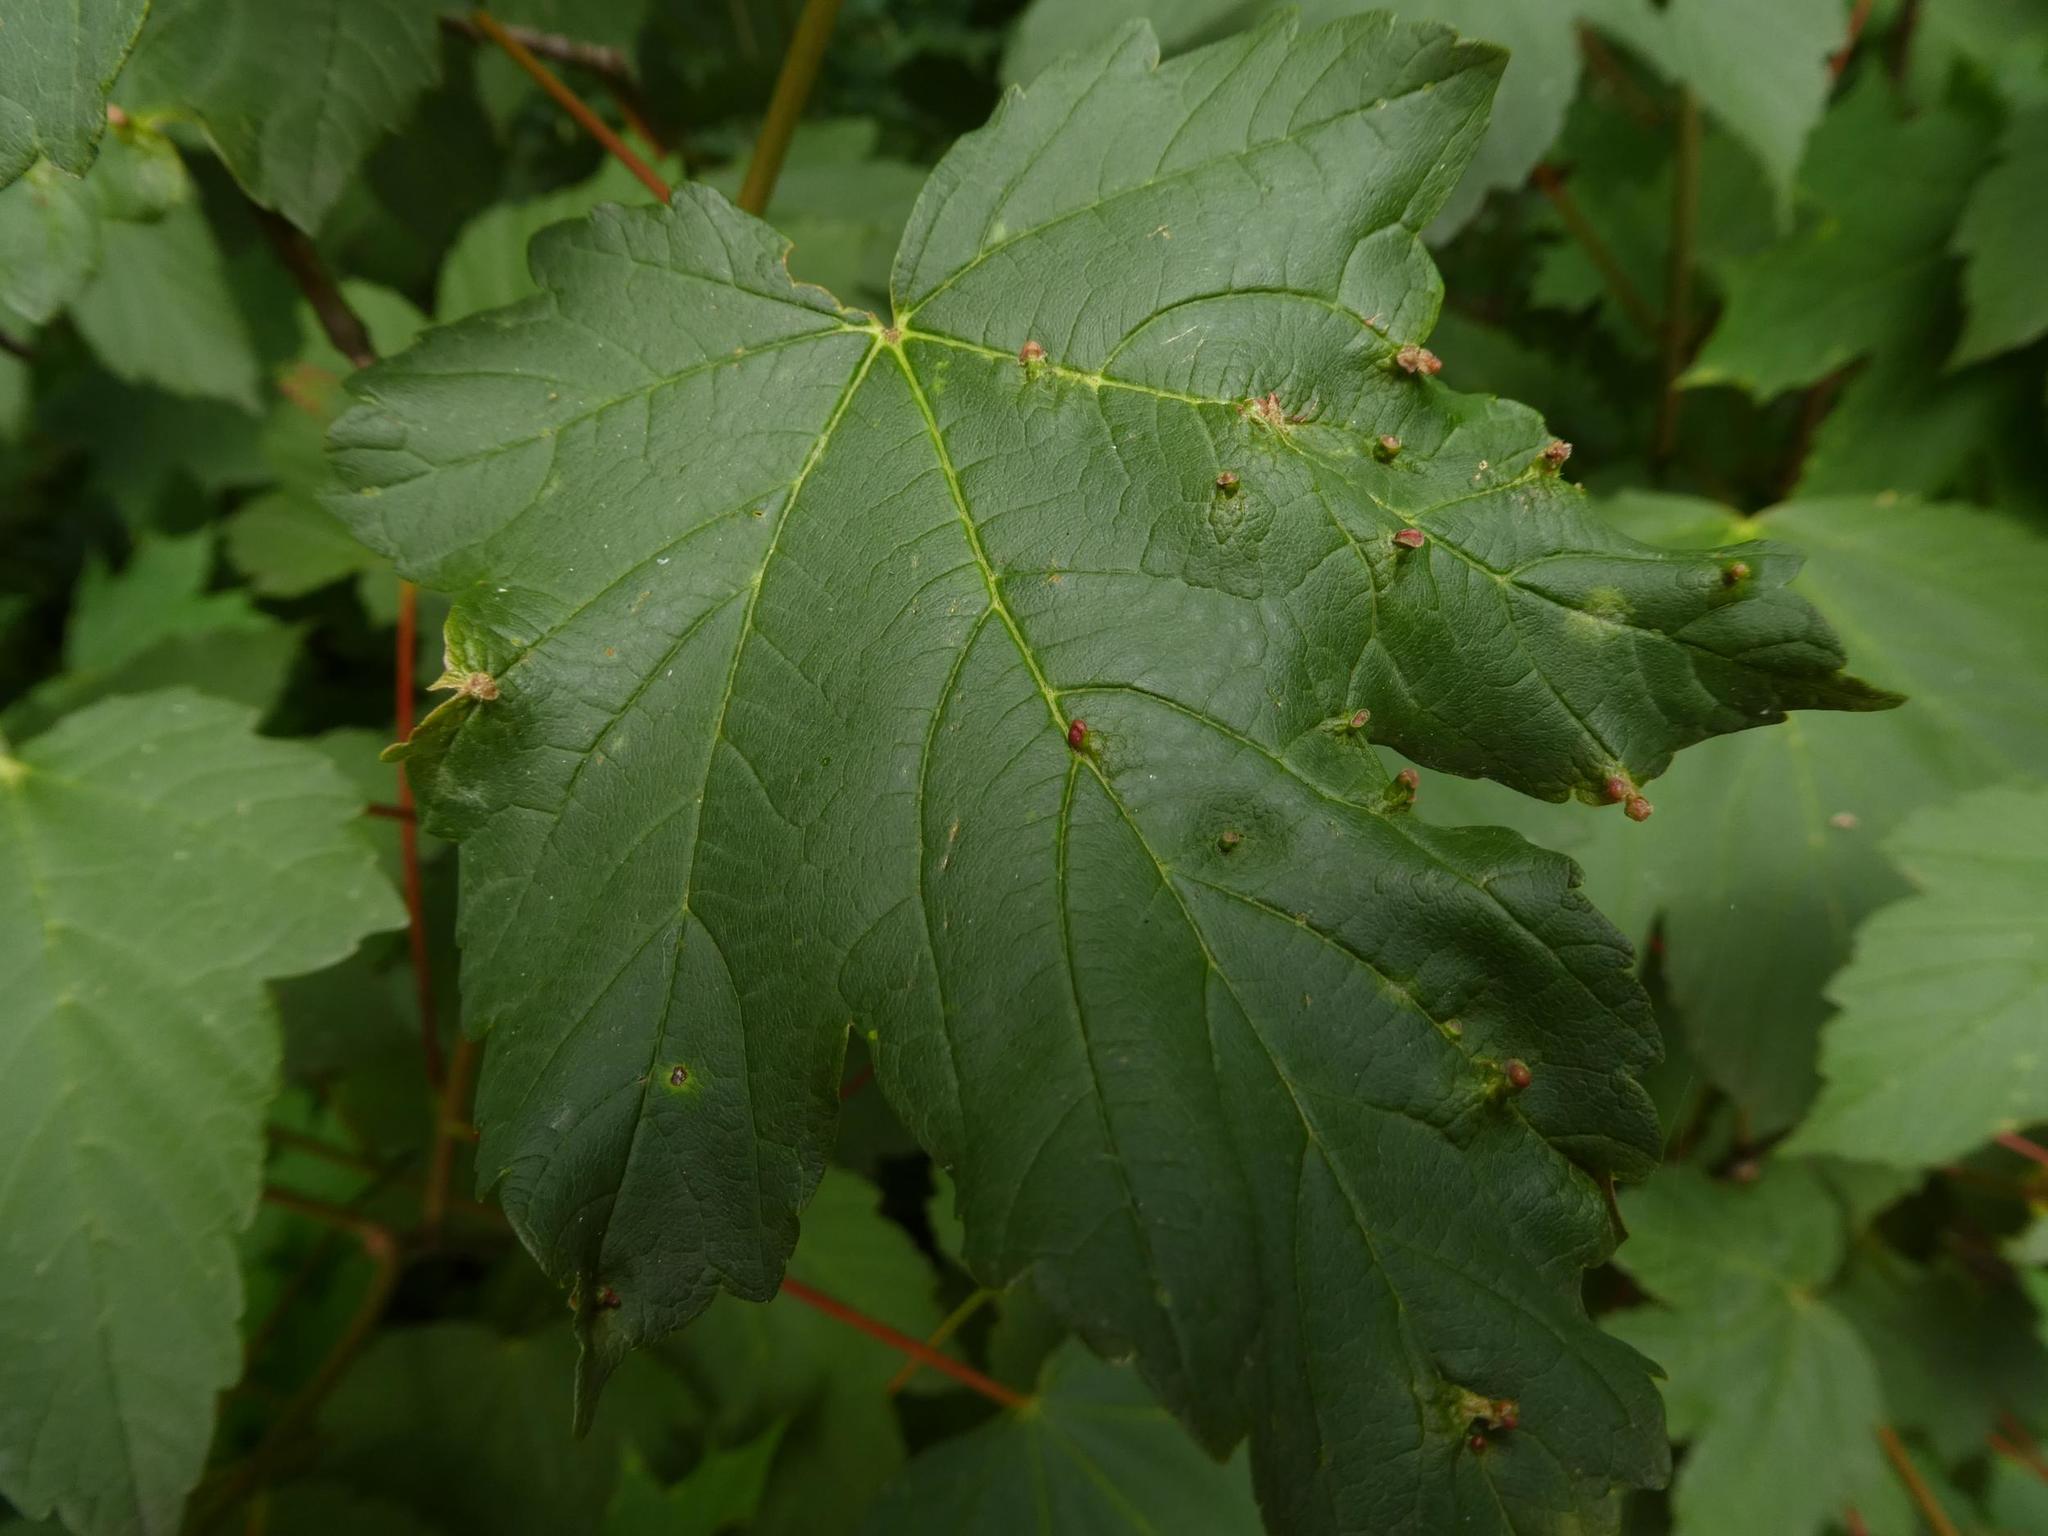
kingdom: Plantae
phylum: Tracheophyta
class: Magnoliopsida
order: Sapindales
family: Sapindaceae
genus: Acer
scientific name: Acer pseudoplatanus
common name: Sycamore
